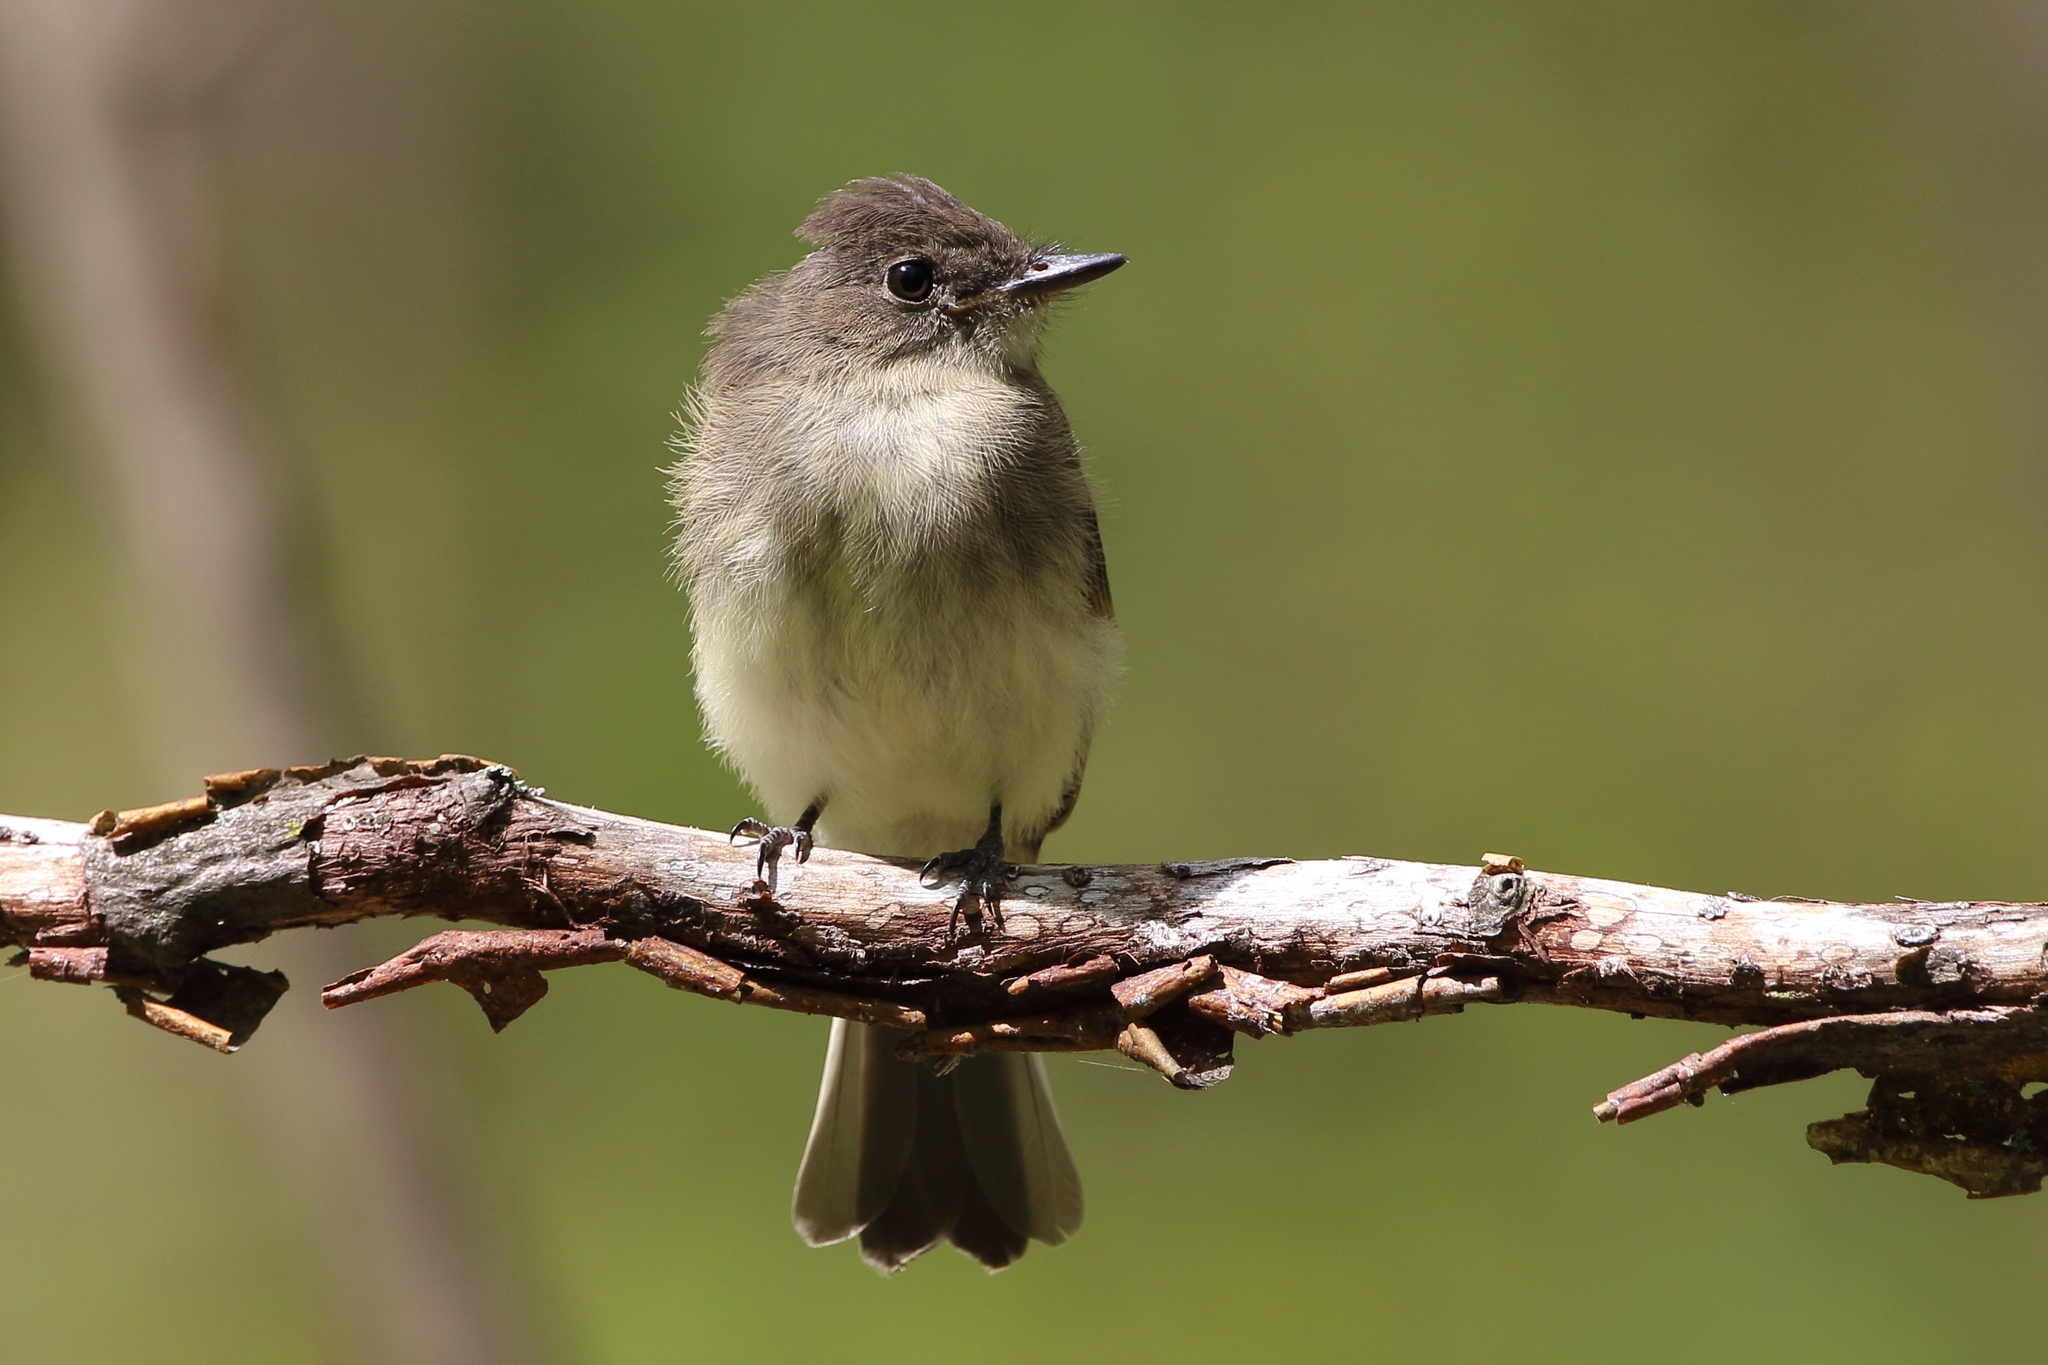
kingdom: Animalia
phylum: Chordata
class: Aves
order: Passeriformes
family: Tyrannidae
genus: Sayornis
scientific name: Sayornis phoebe
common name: Eastern phoebe
